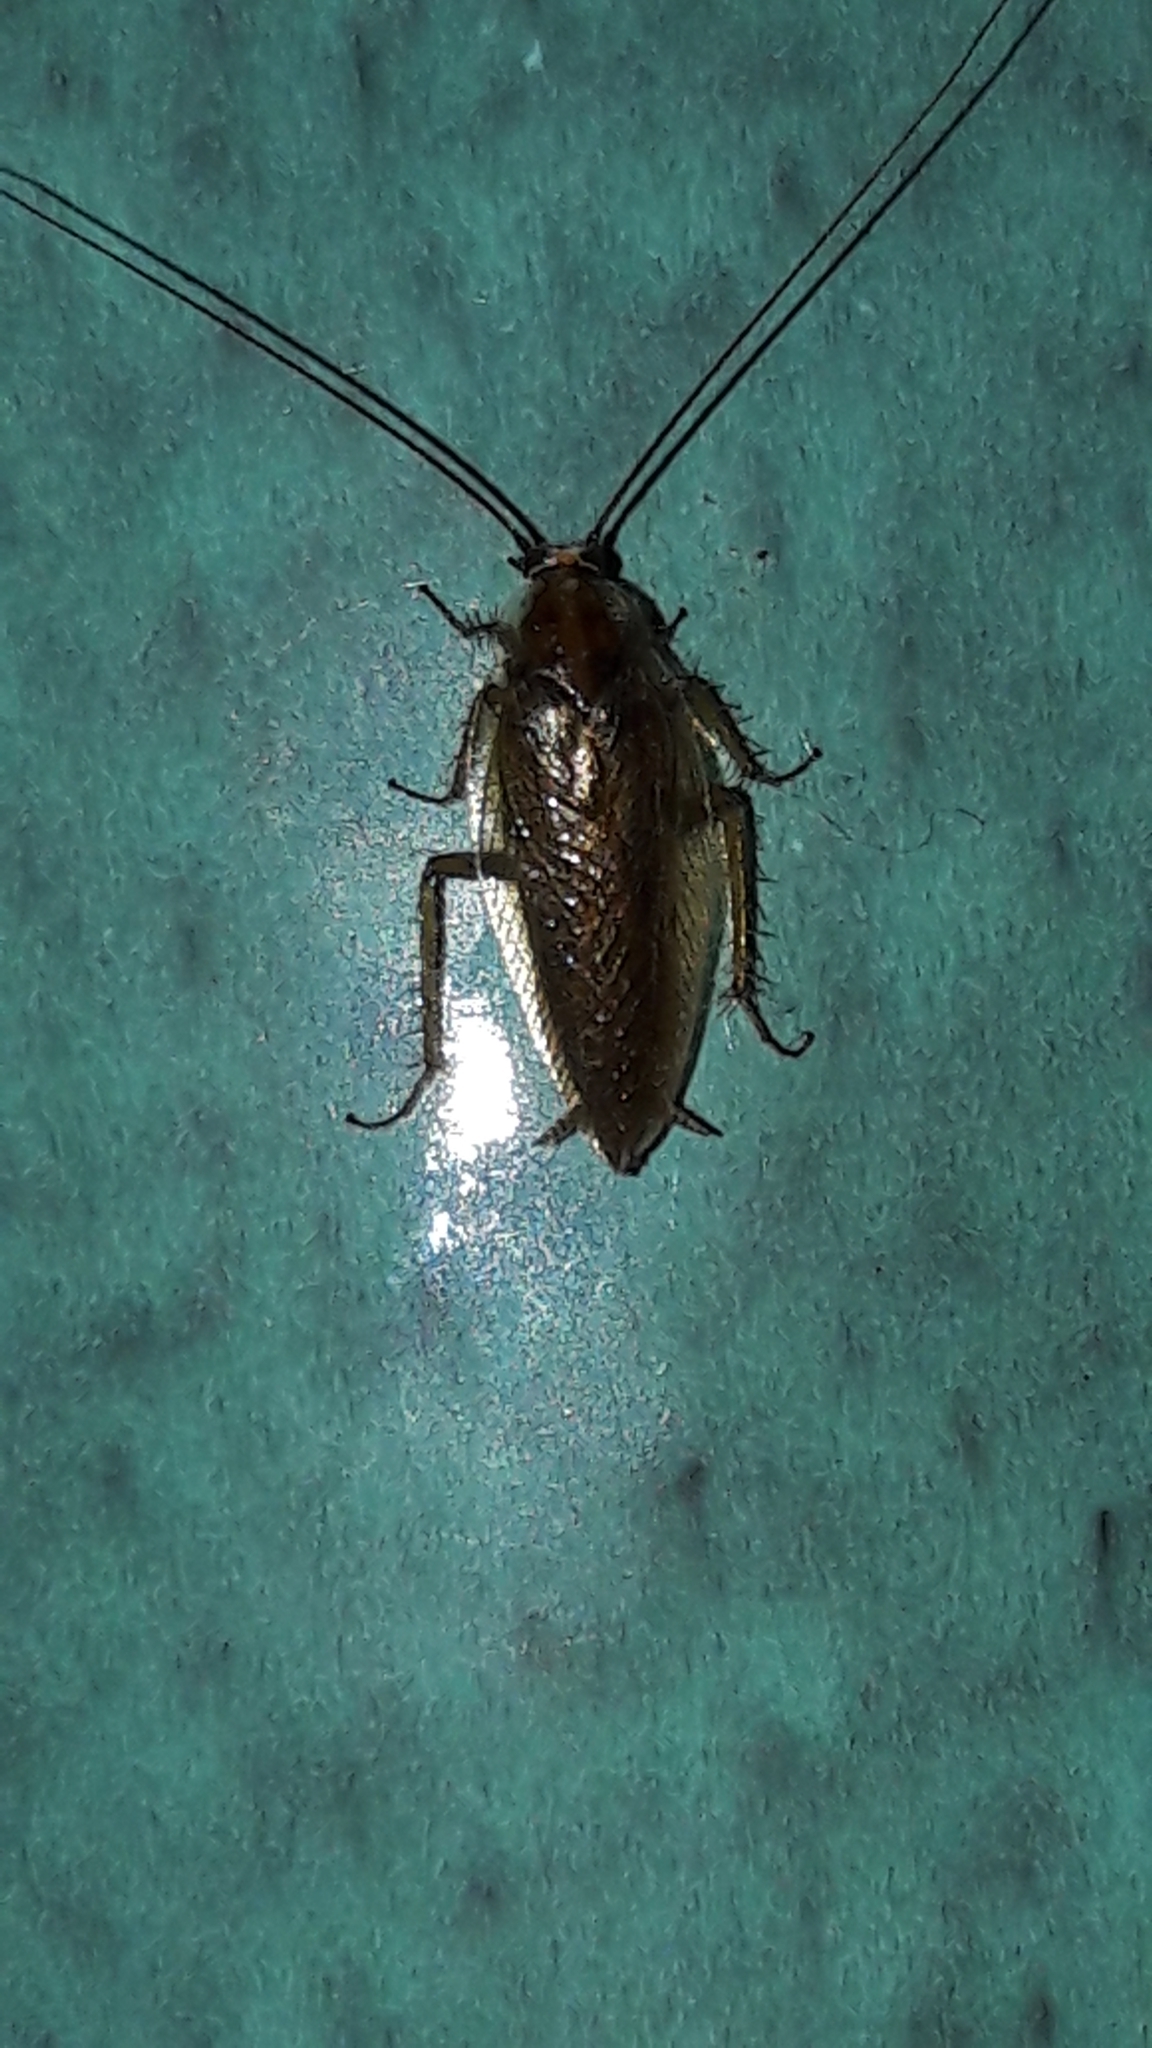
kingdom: Animalia
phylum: Arthropoda
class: Insecta
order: Blattodea
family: Ectobiidae
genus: Ectobius
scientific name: Ectobius vittiventris
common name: Garden cockroach
